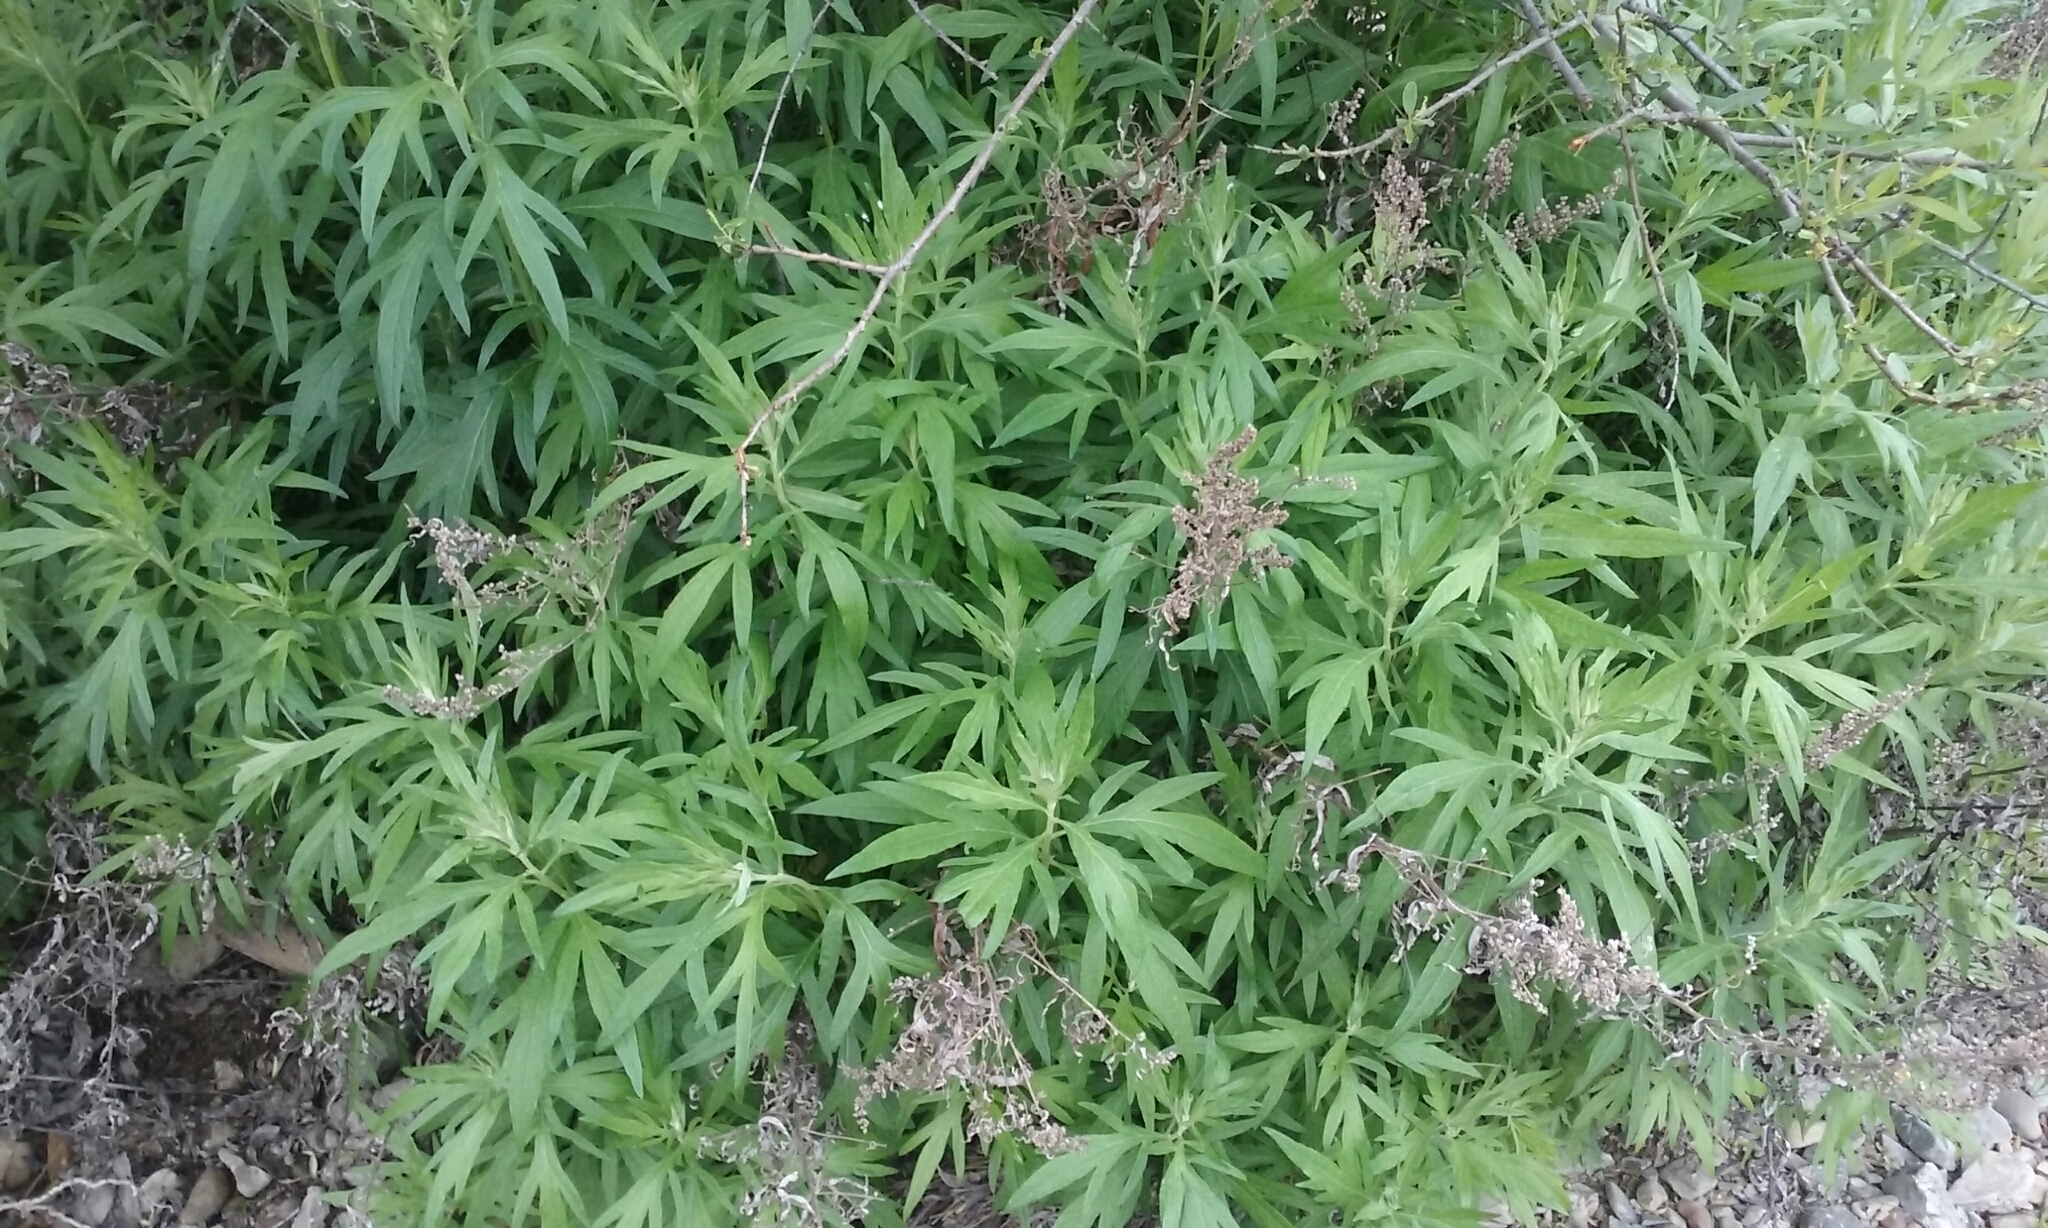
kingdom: Plantae
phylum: Tracheophyta
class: Magnoliopsida
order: Asterales
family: Asteraceae
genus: Artemisia
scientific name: Artemisia douglasiana
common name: Northwest mugwort
